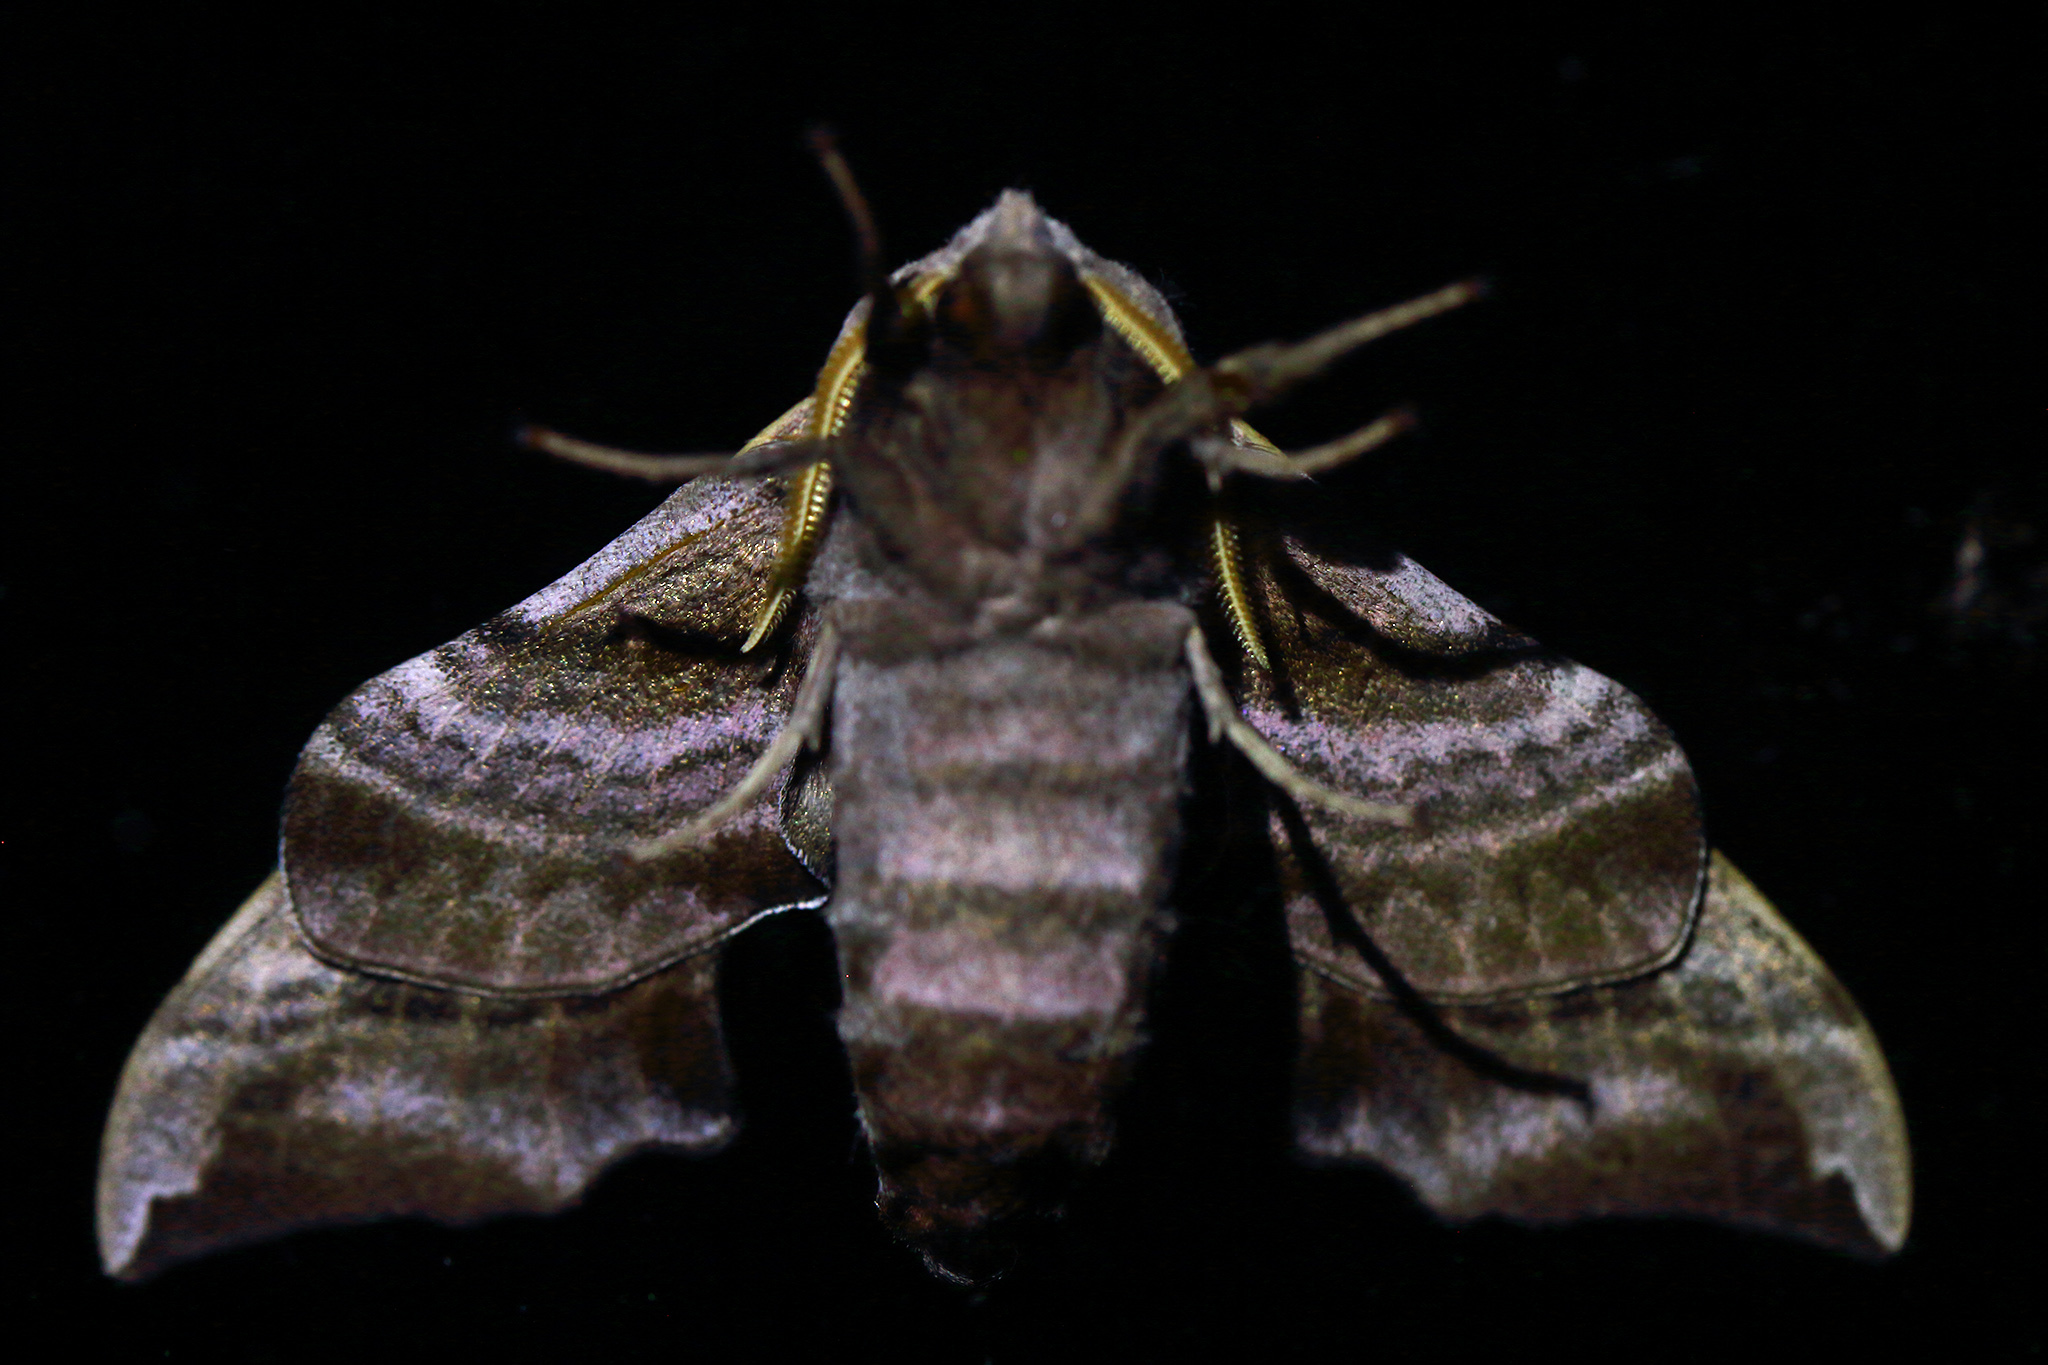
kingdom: Animalia
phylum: Arthropoda
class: Insecta
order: Lepidoptera
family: Sphingidae
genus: Smerinthus
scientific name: Smerinthus ocellata
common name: Eyed hawk-moth
